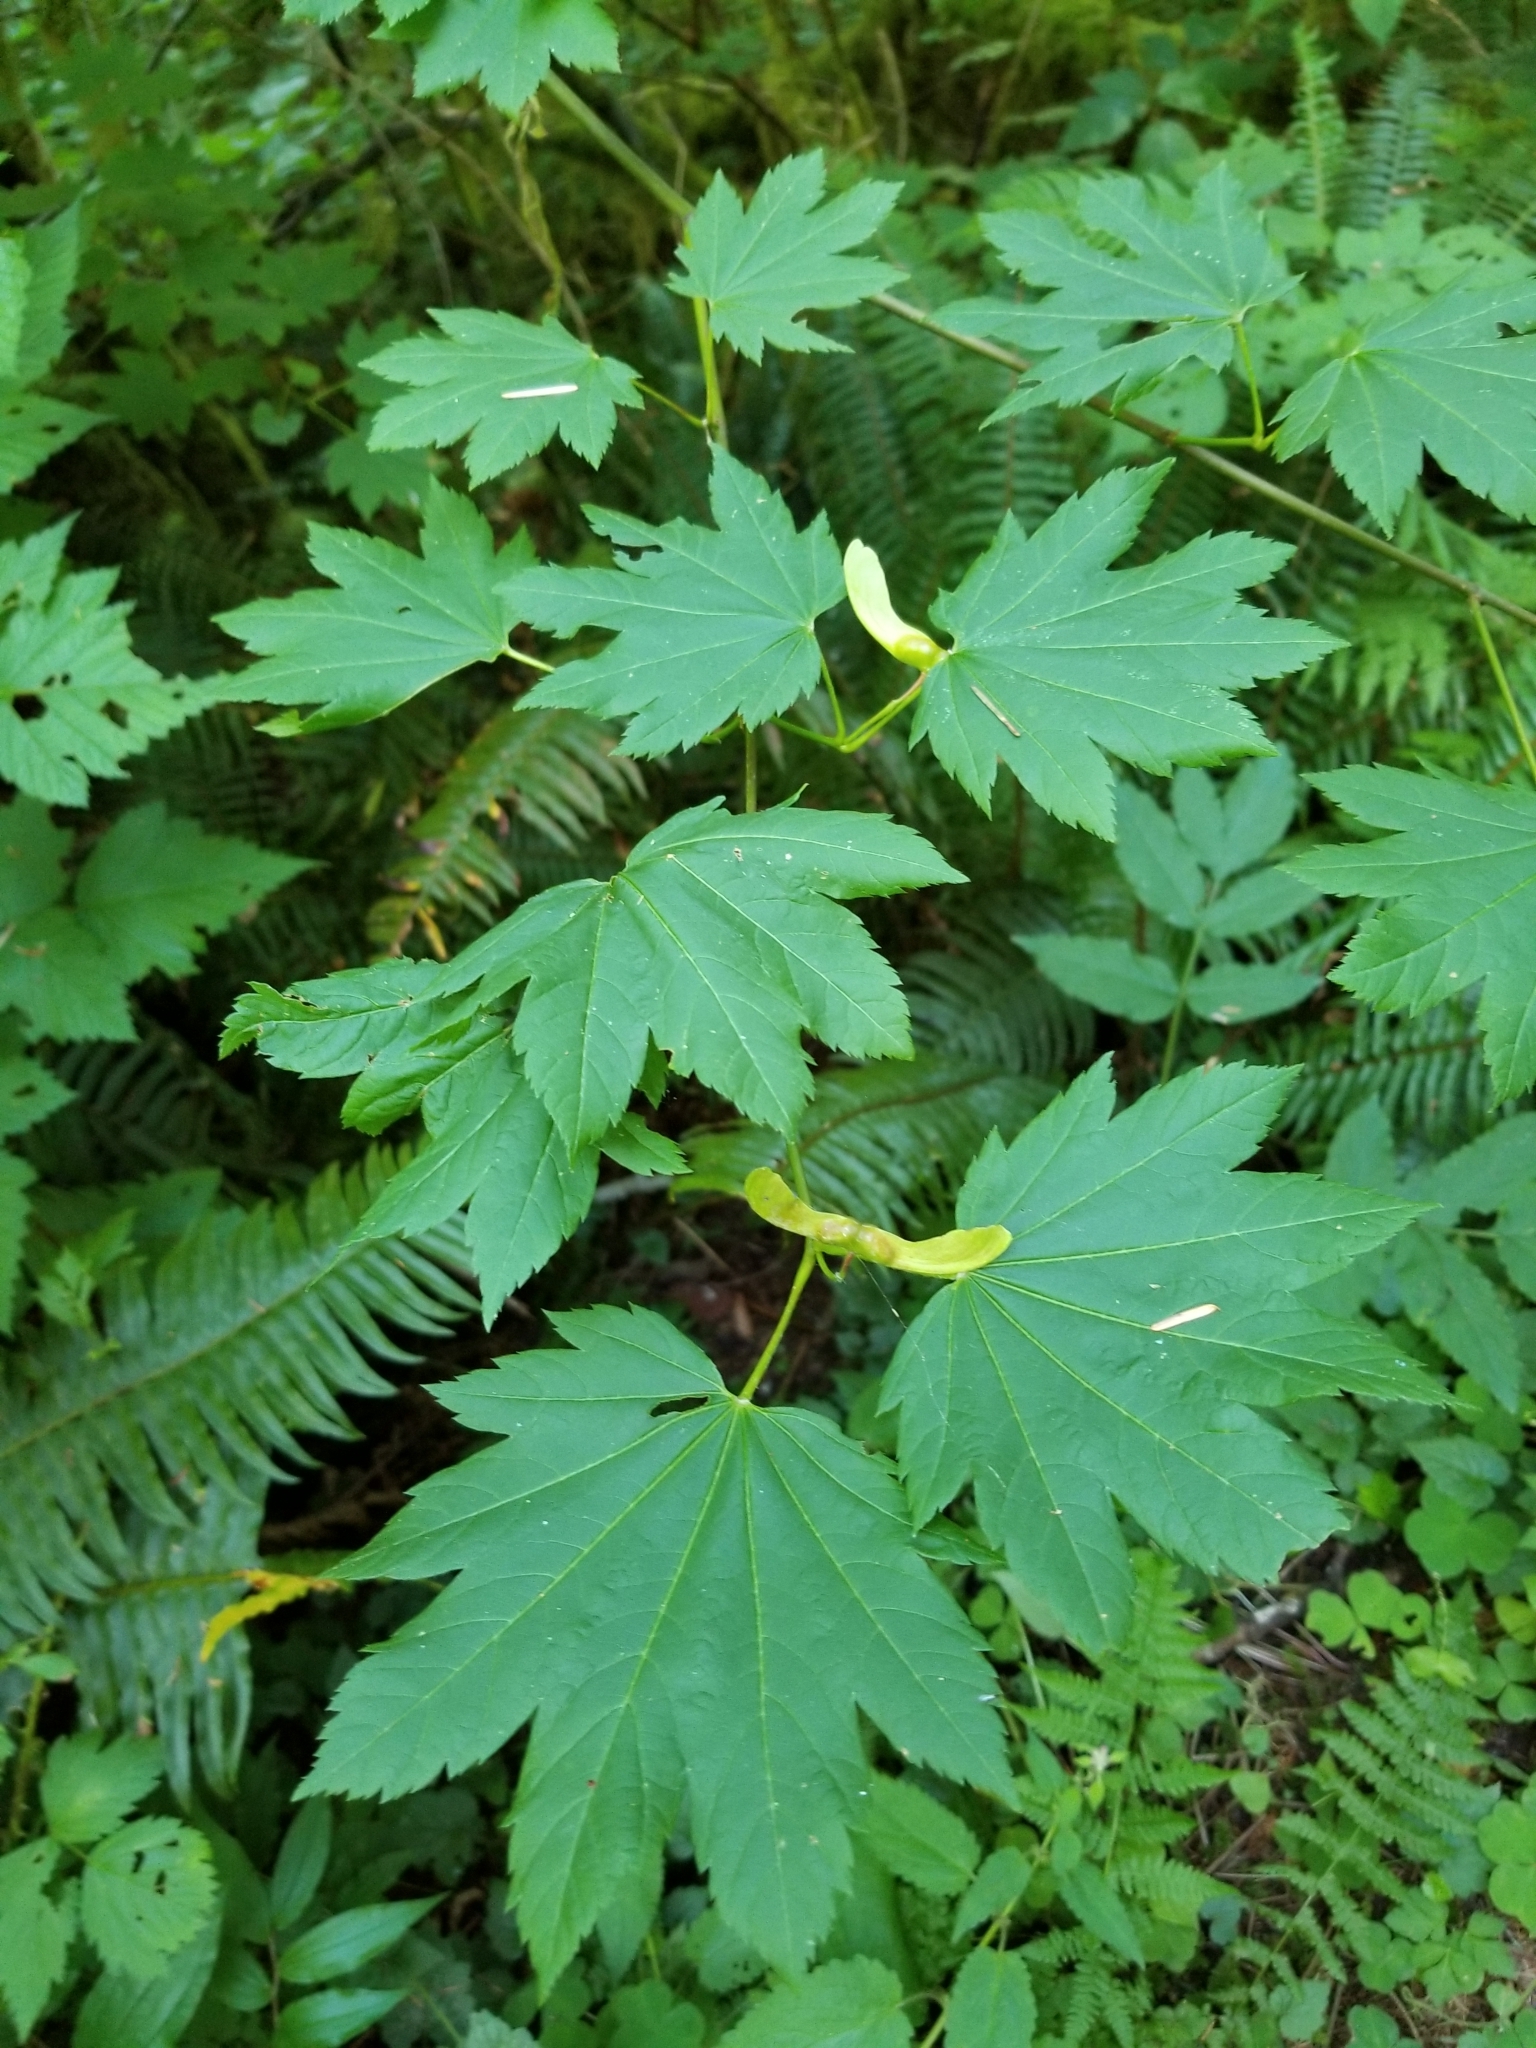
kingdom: Plantae
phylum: Tracheophyta
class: Magnoliopsida
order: Sapindales
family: Sapindaceae
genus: Acer
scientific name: Acer circinatum
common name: Vine maple
